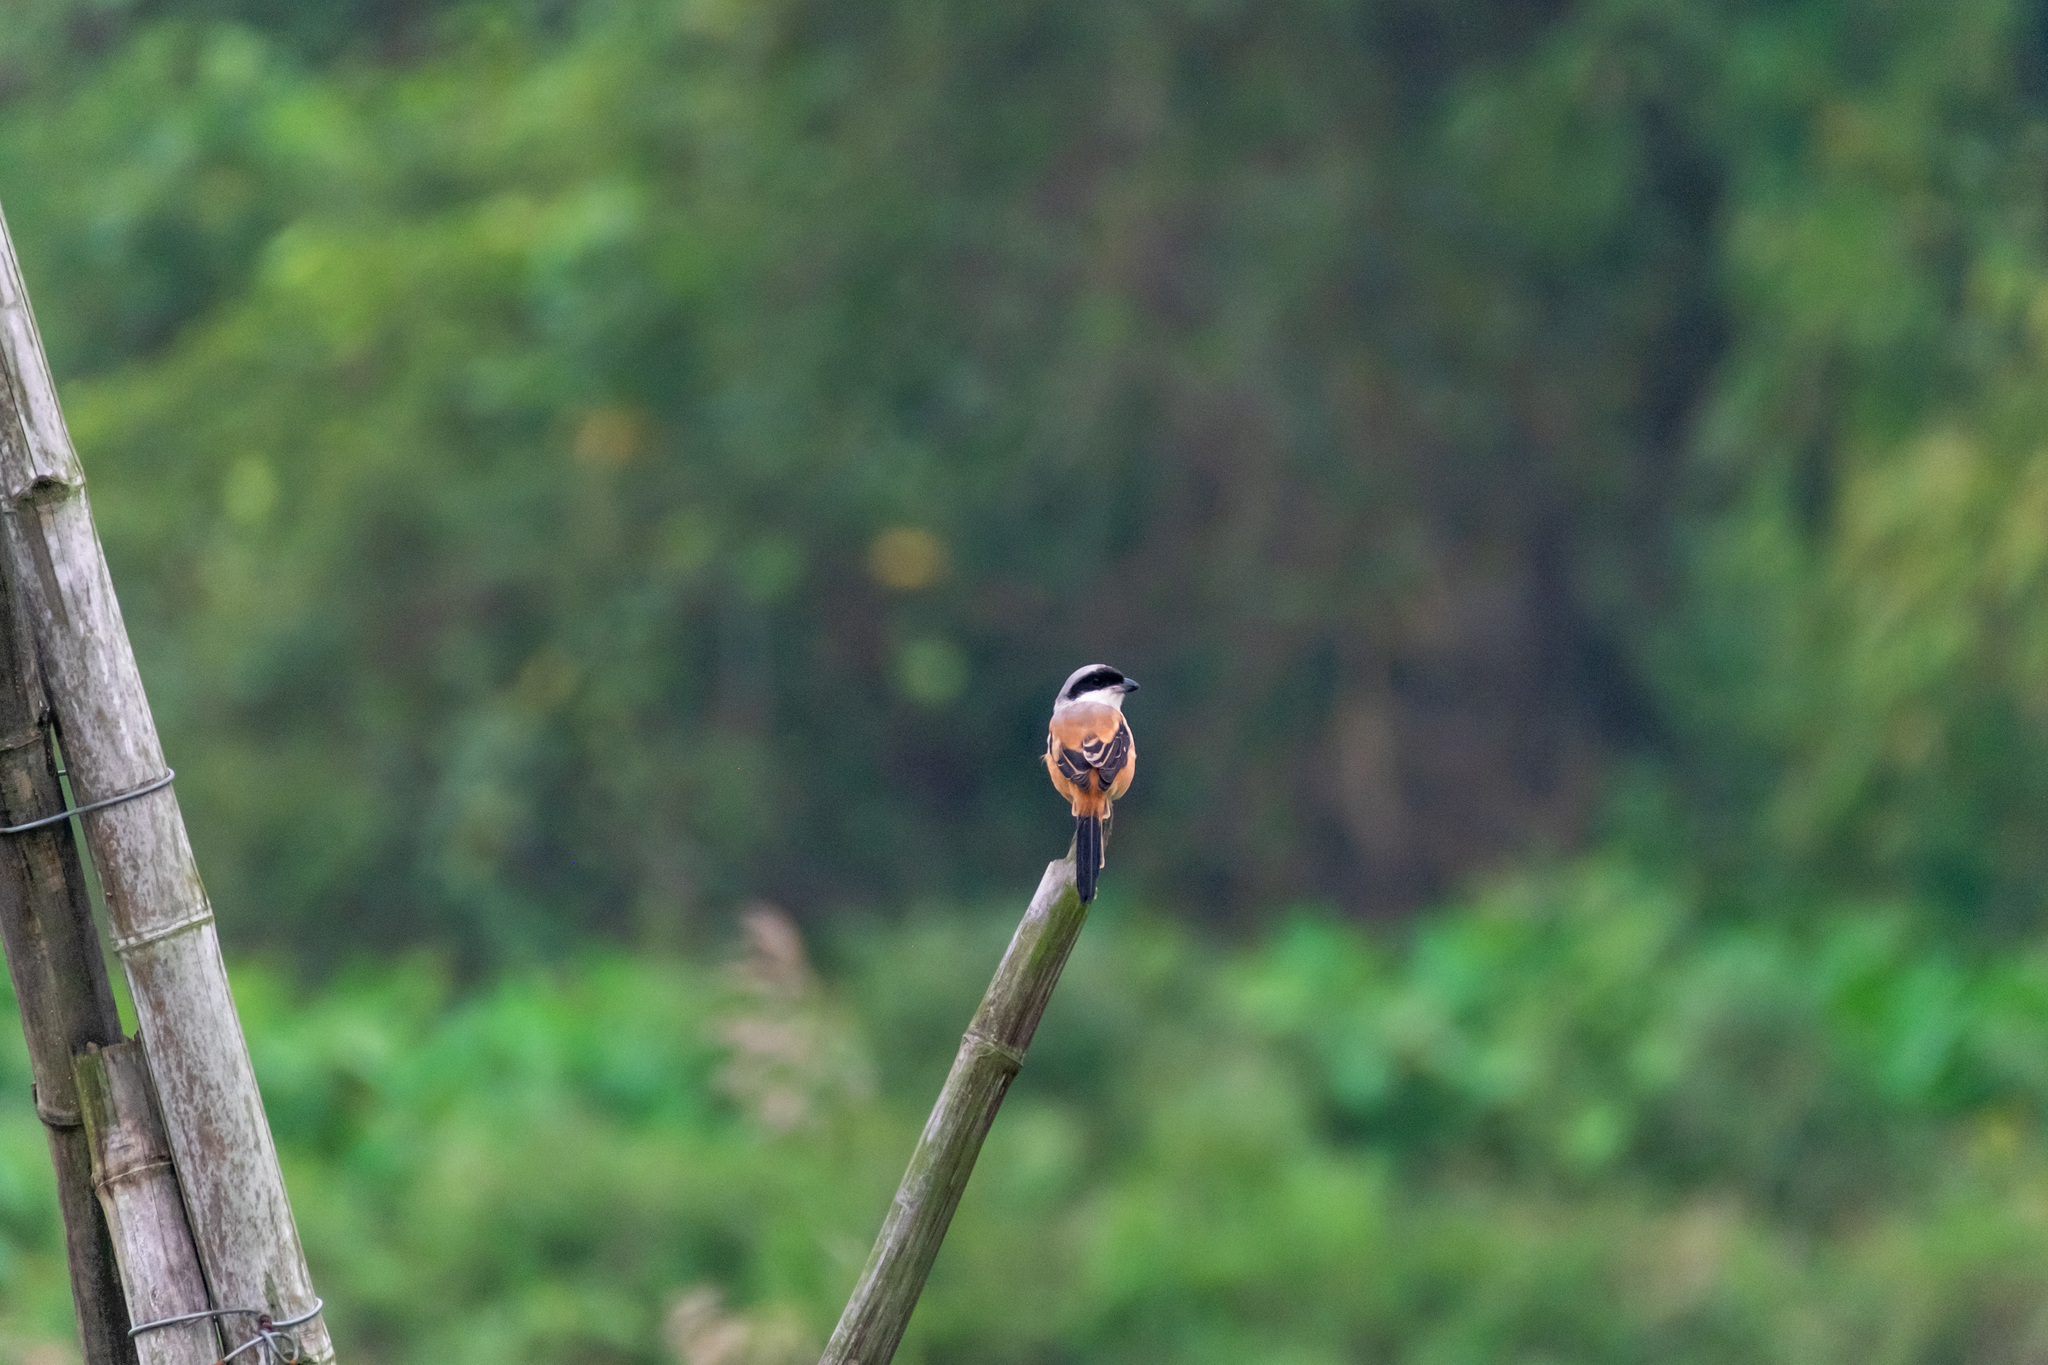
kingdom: Animalia
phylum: Chordata
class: Aves
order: Passeriformes
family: Laniidae
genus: Lanius
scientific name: Lanius schach
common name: Long-tailed shrike
